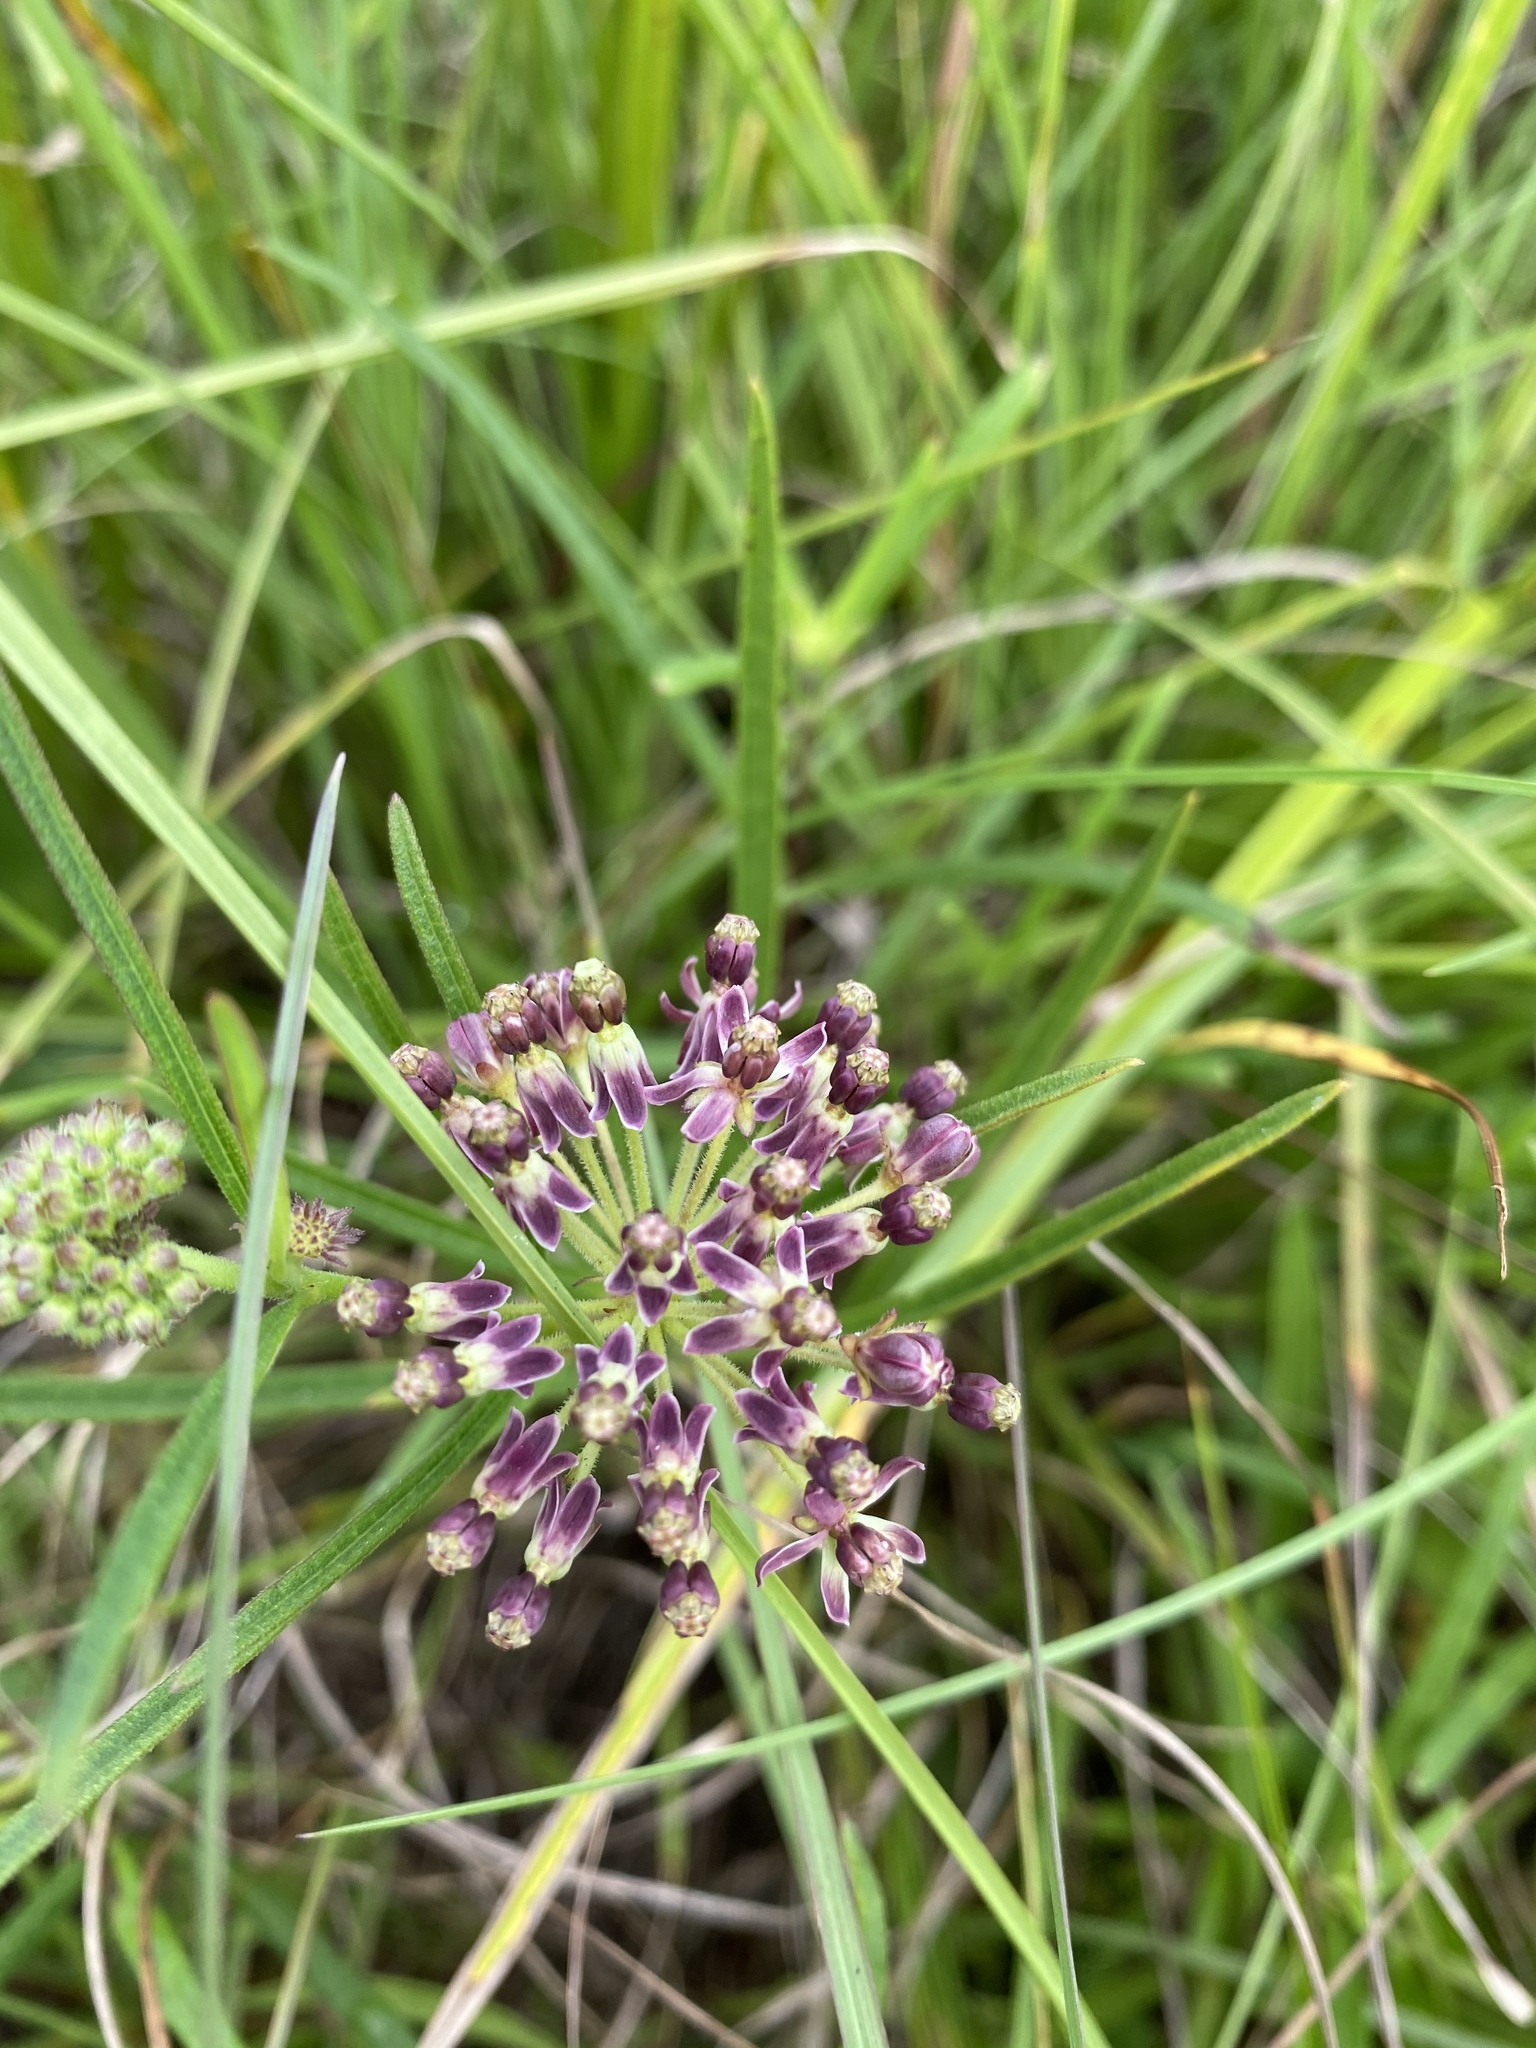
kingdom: Plantae
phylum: Tracheophyta
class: Magnoliopsida
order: Gentianales
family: Apocynaceae
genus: Asclepias
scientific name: Asclepias hirtella
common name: Prairie milkweed
